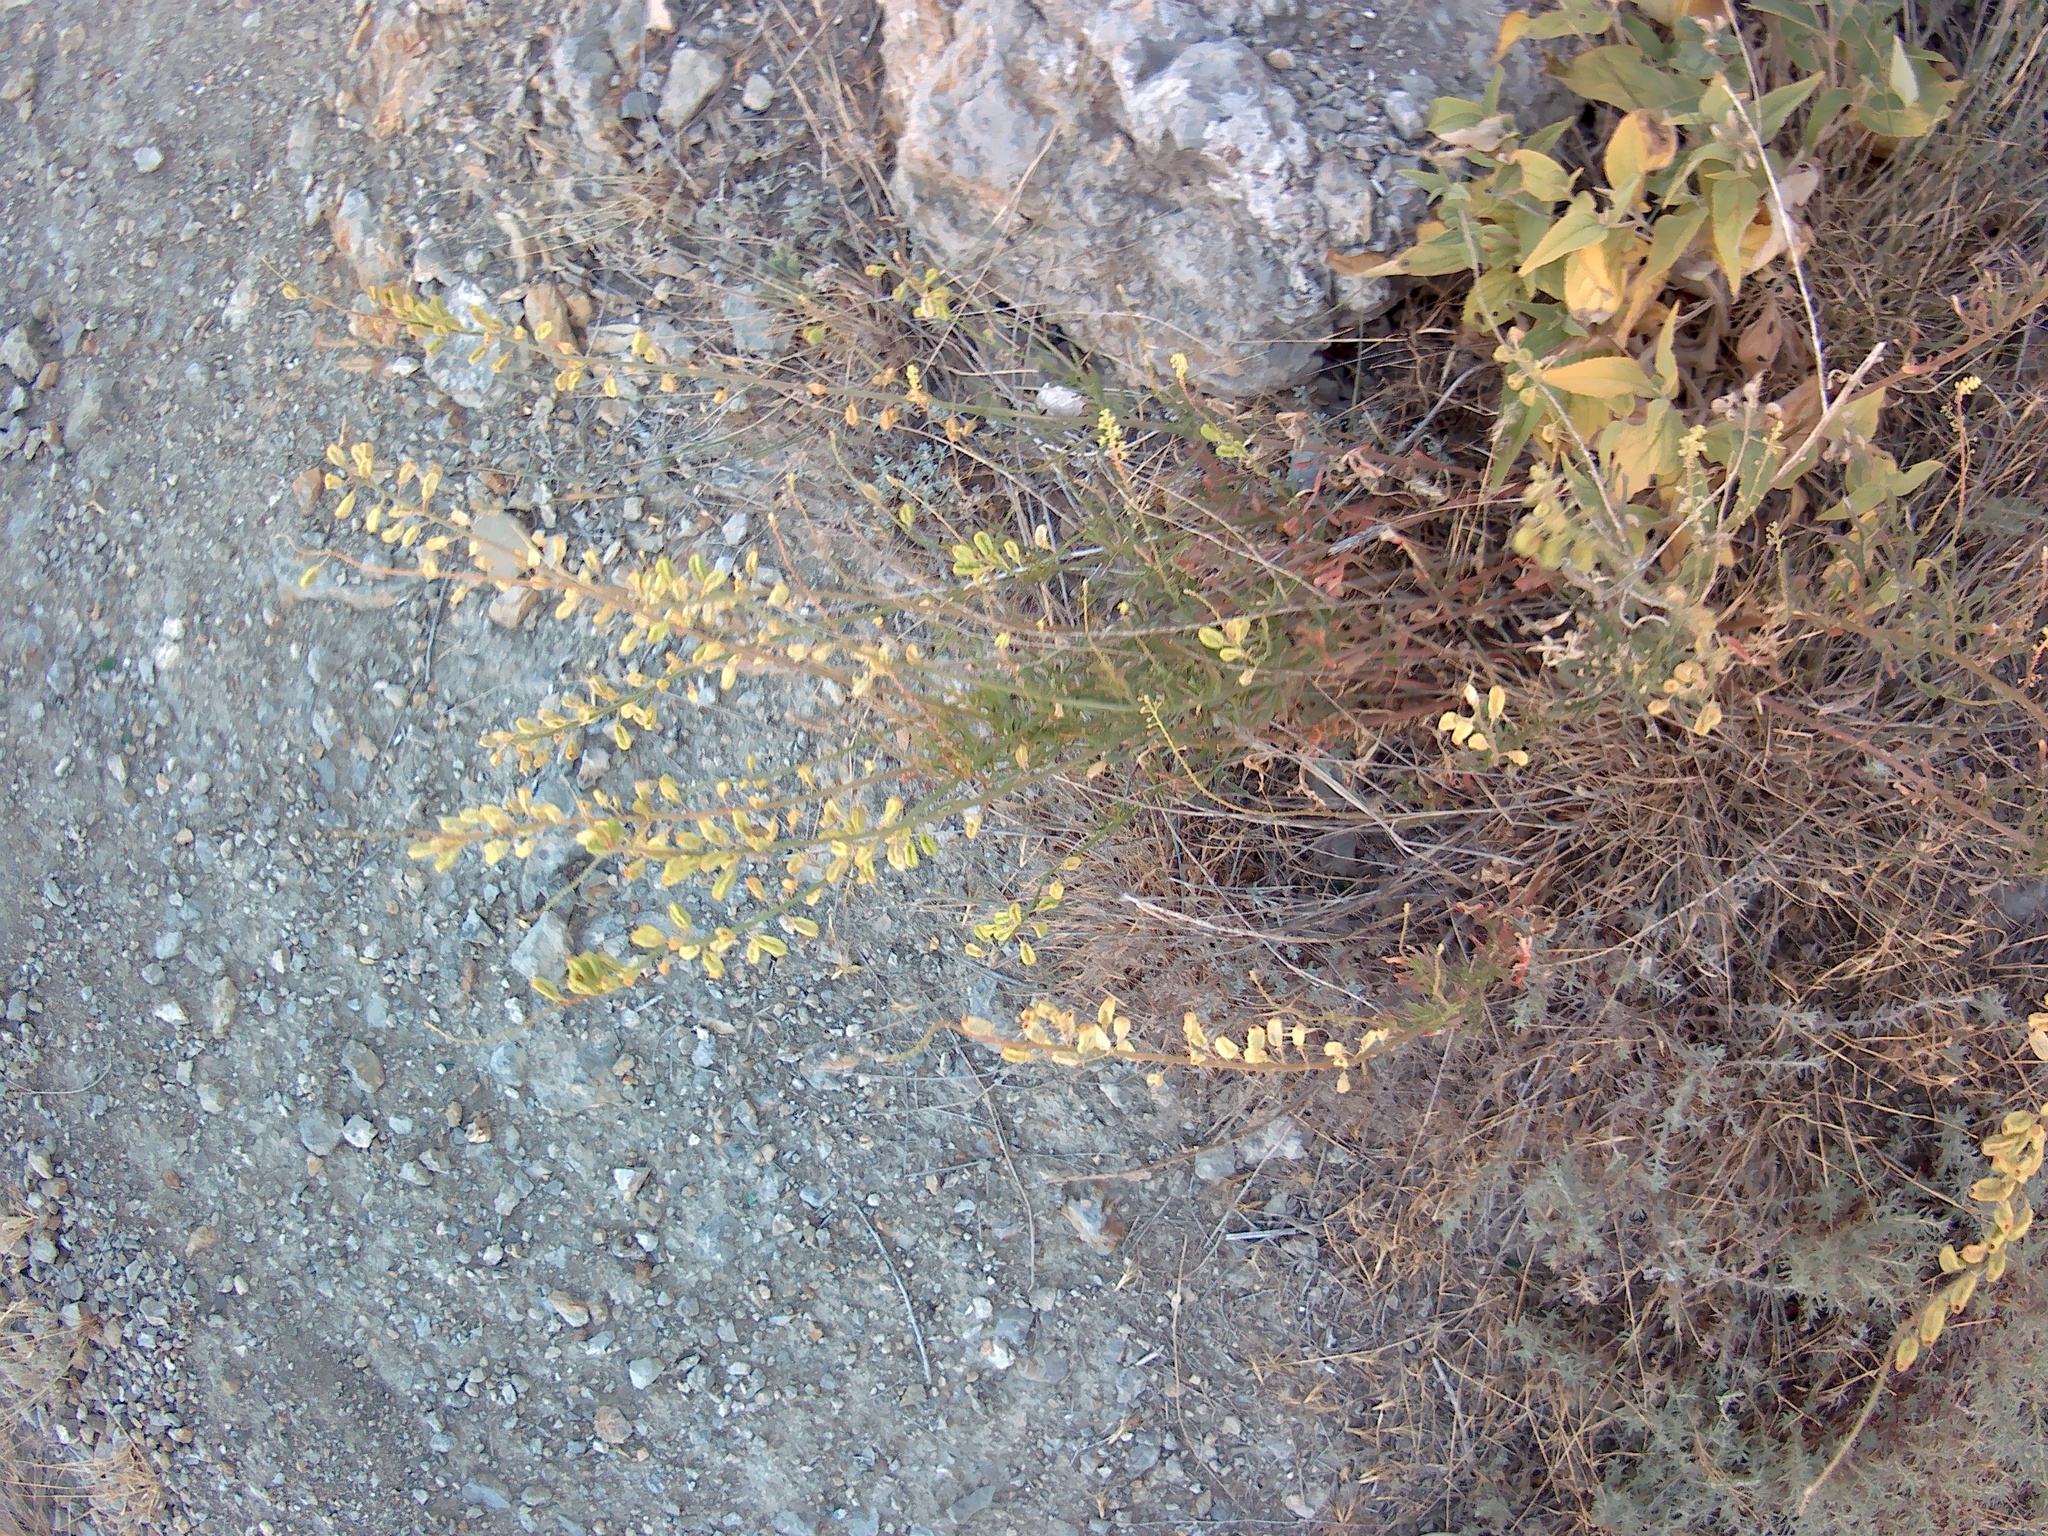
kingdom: Plantae
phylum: Tracheophyta
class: Magnoliopsida
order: Brassicales
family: Resedaceae
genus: Reseda
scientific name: Reseda lutea
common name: Wild mignonette
